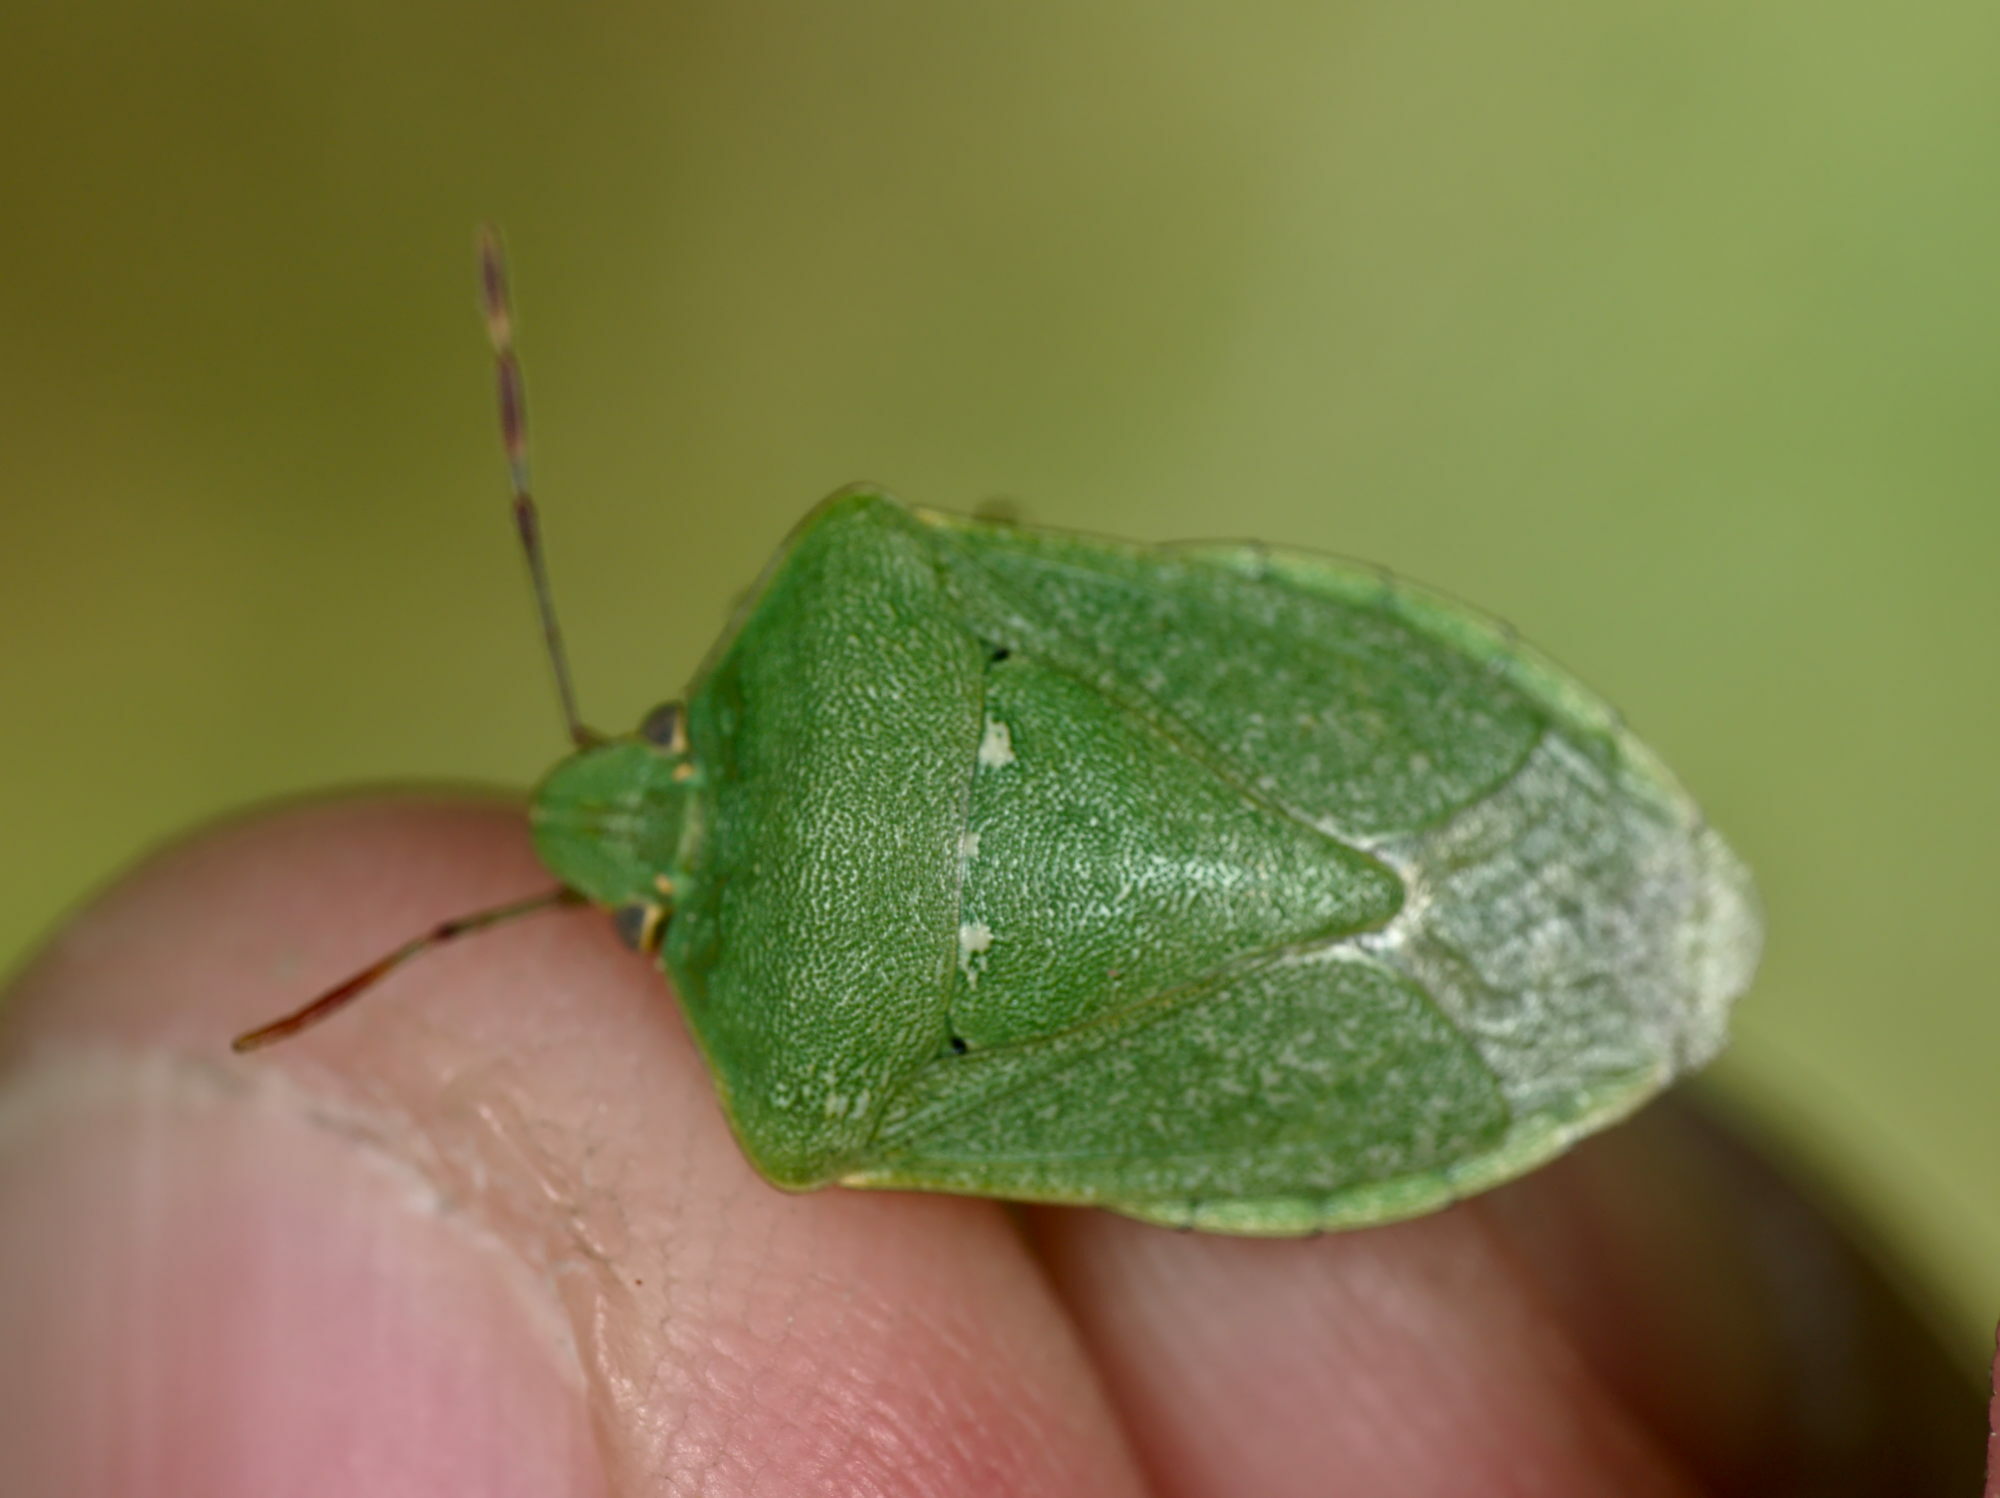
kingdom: Animalia
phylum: Arthropoda
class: Insecta
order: Hemiptera
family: Pentatomidae
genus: Nezara
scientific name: Nezara viridula
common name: Southern green stink bug
